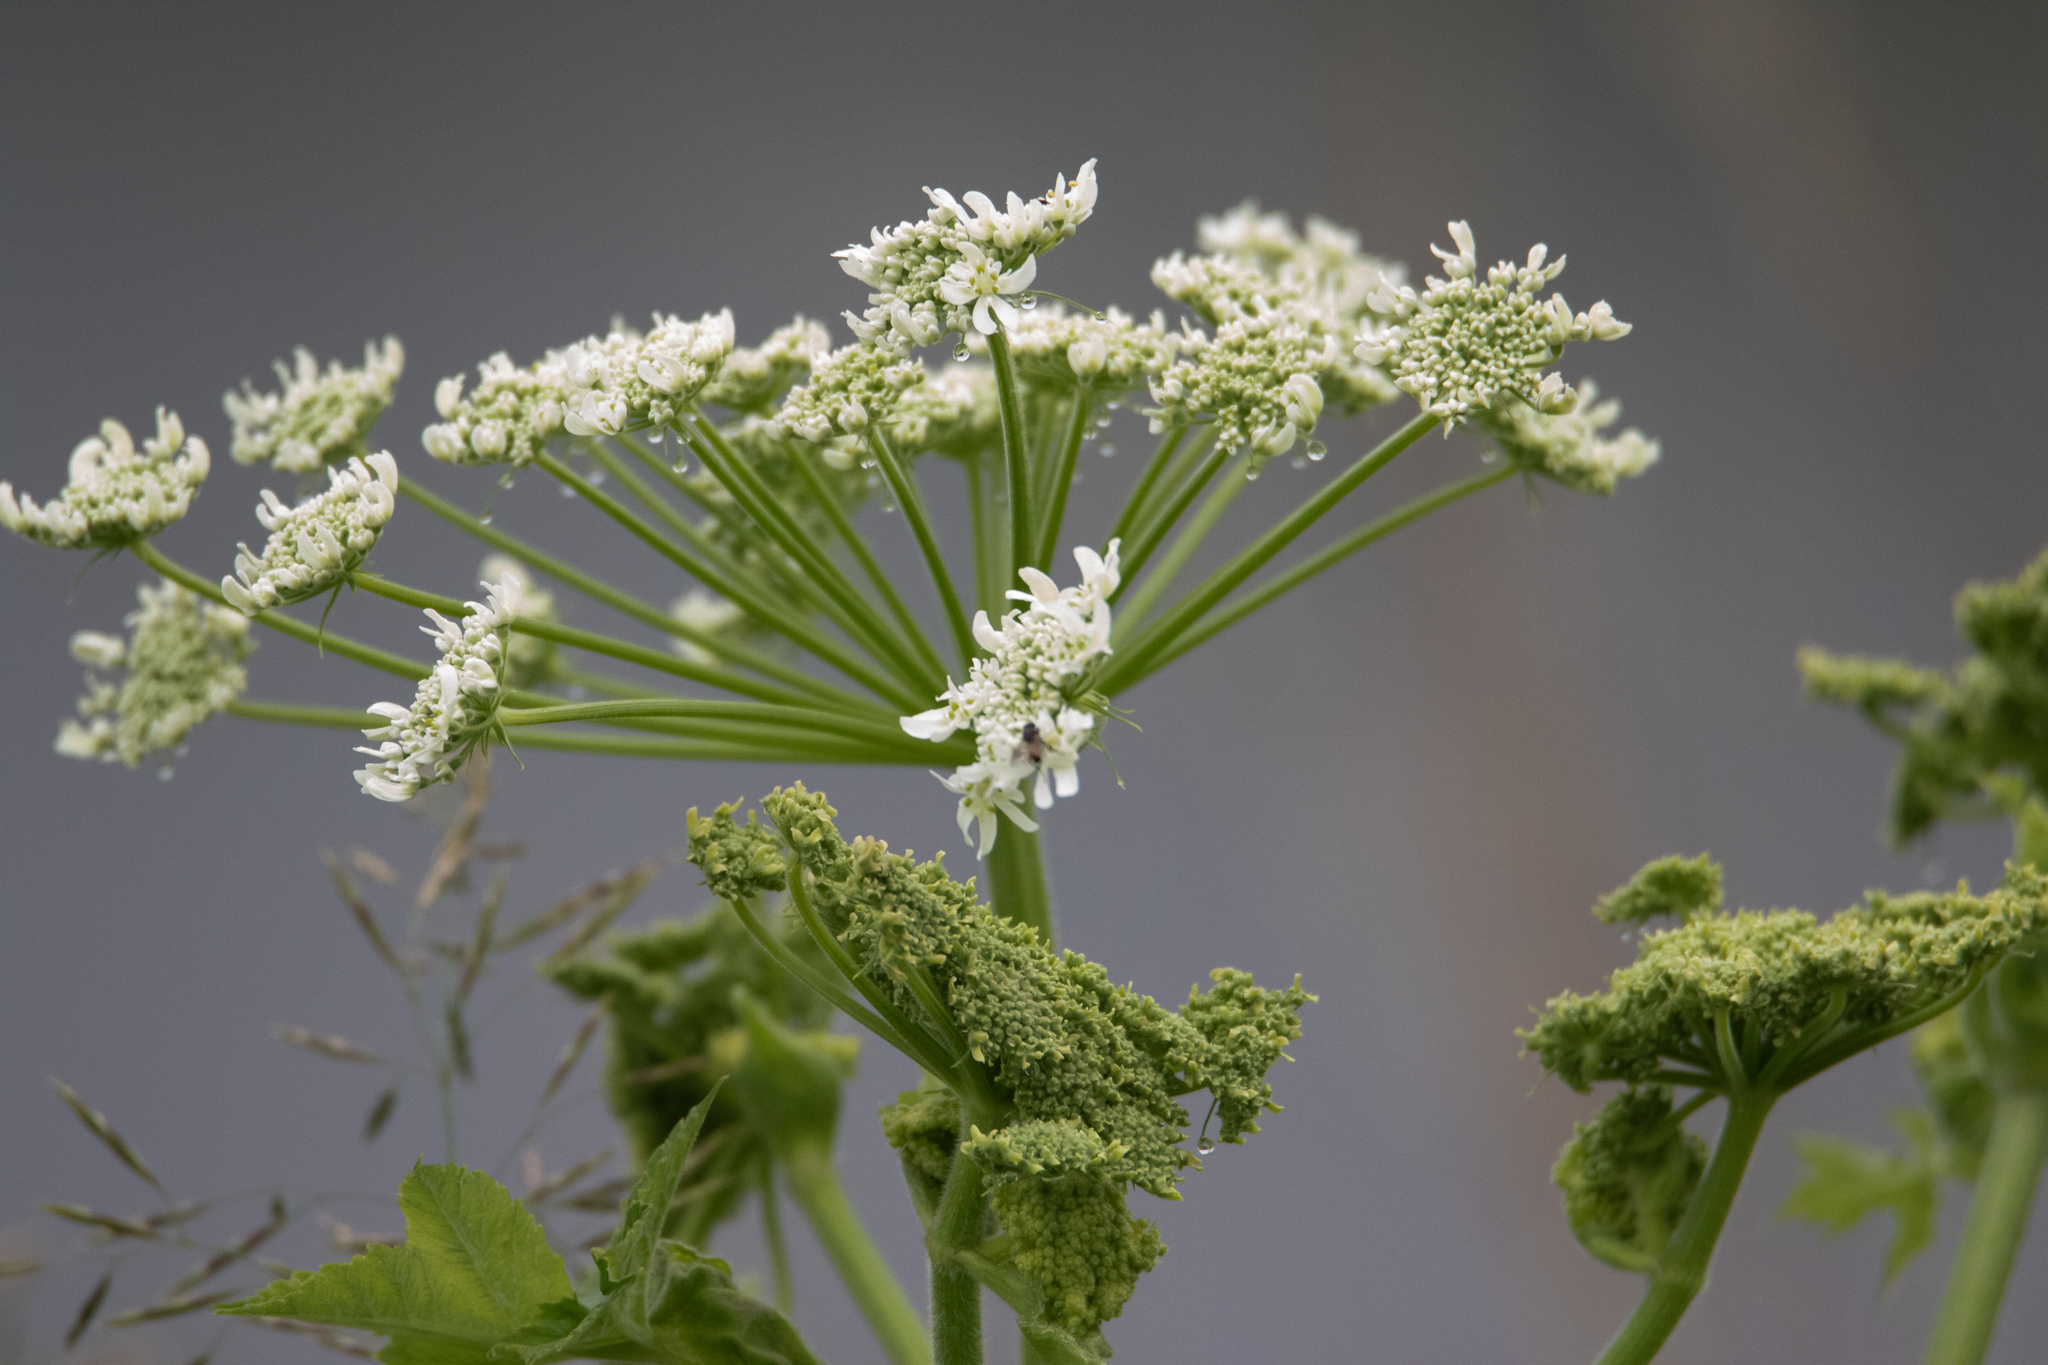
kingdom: Plantae
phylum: Tracheophyta
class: Magnoliopsida
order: Apiales
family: Apiaceae
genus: Heracleum
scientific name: Heracleum dissectum
